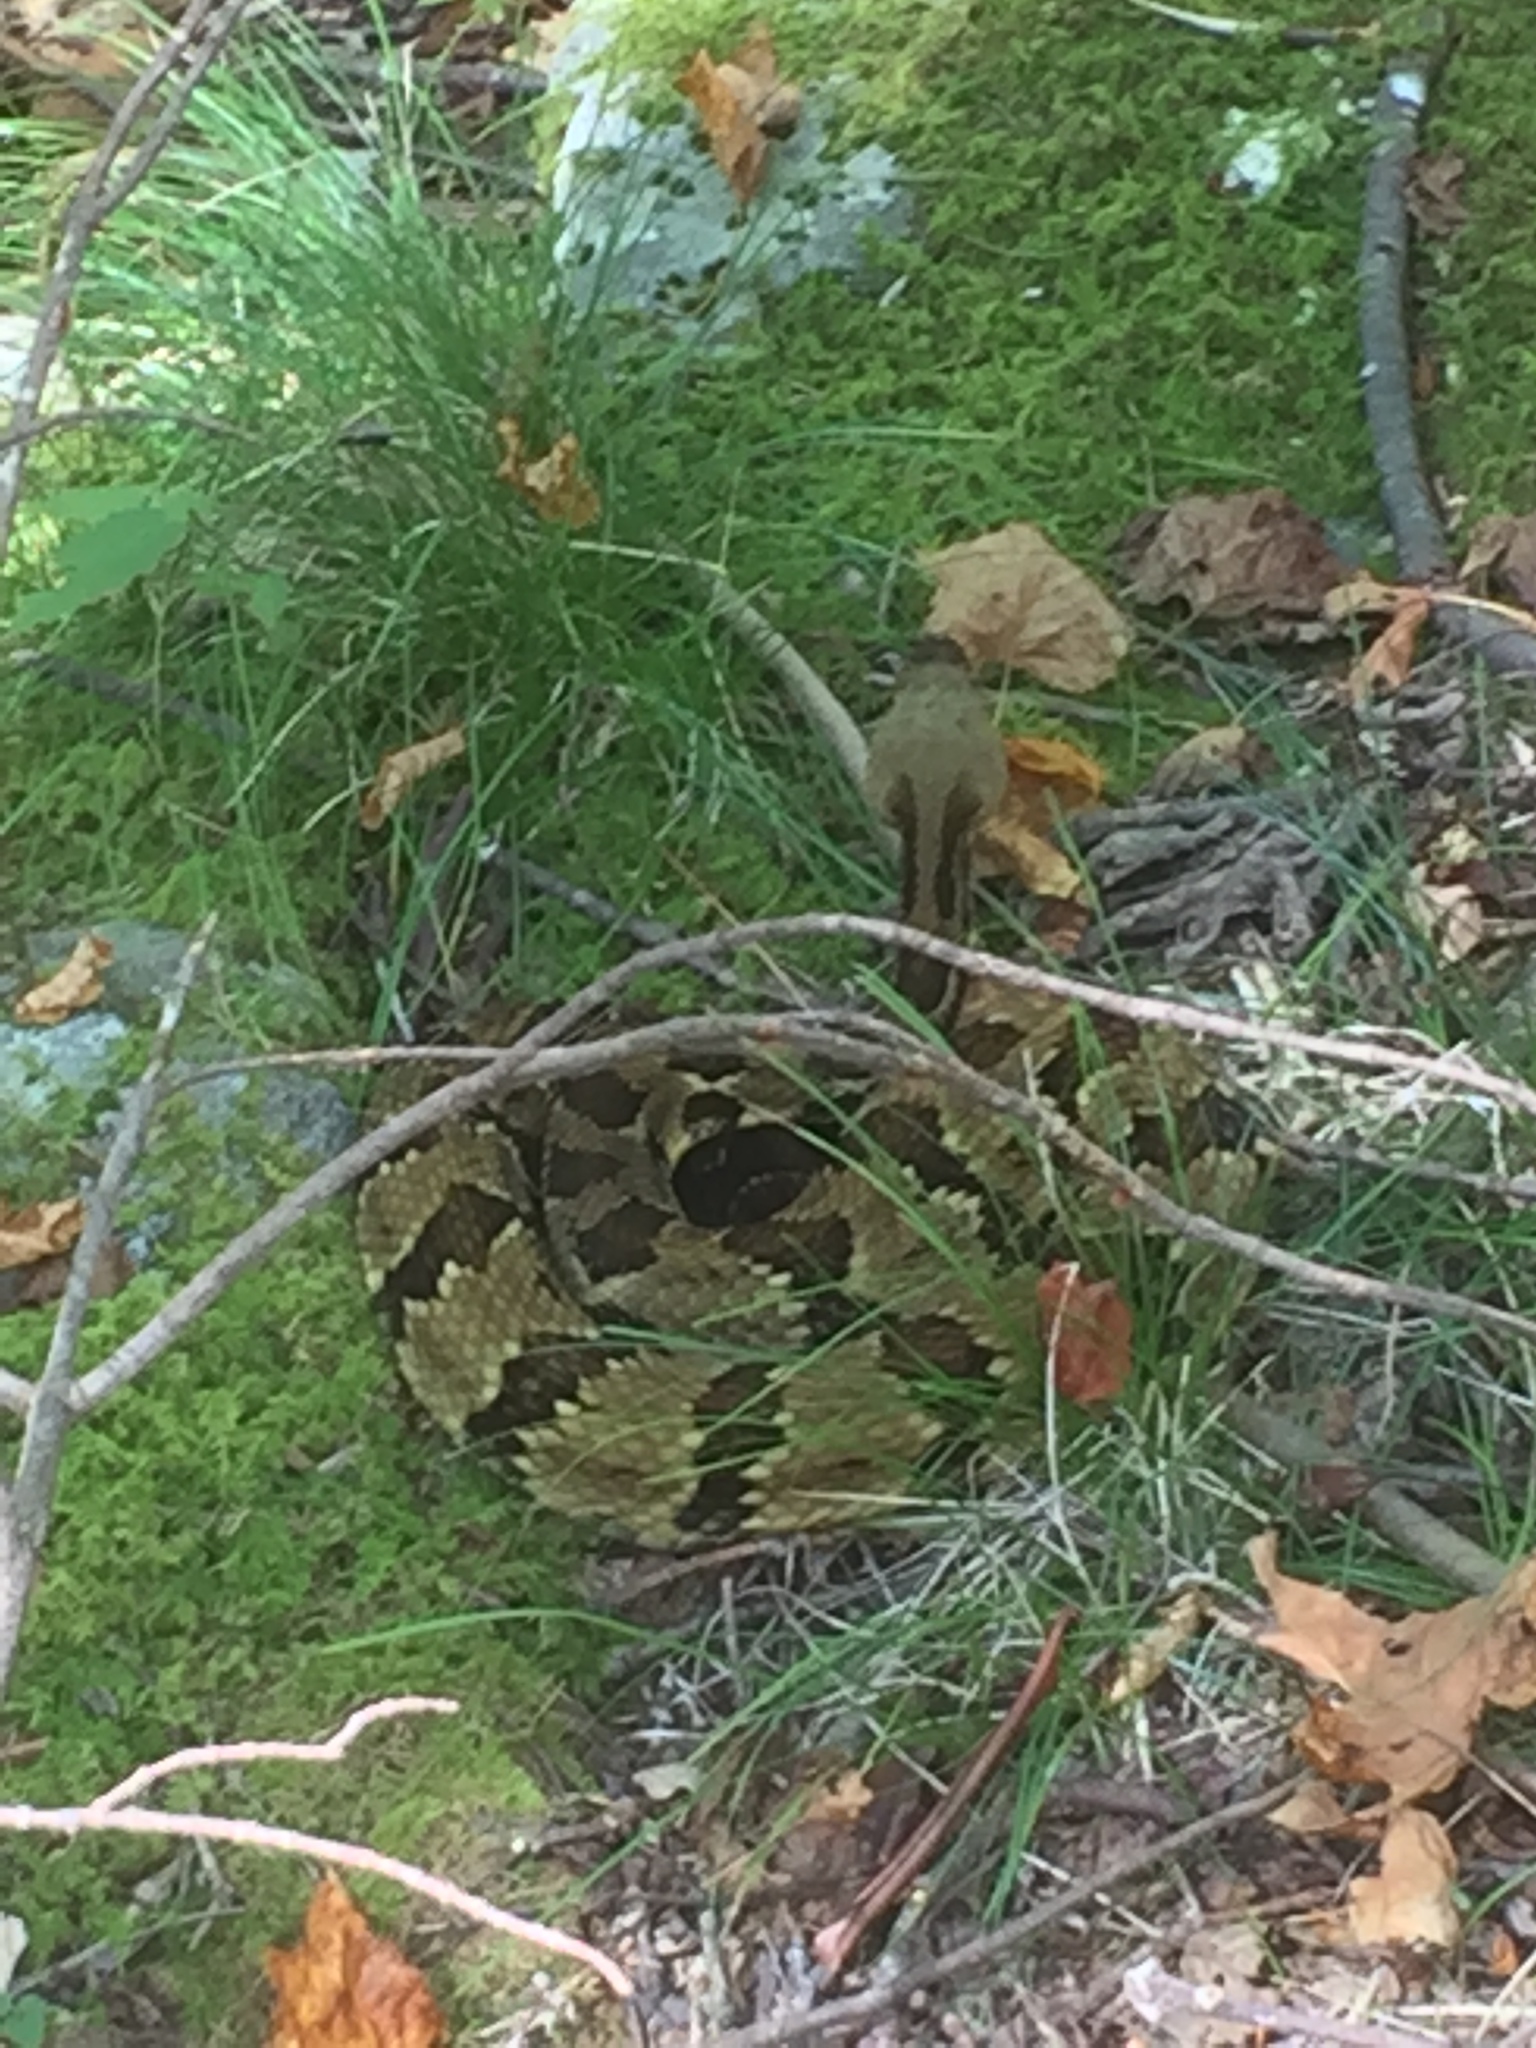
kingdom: Animalia
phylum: Chordata
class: Squamata
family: Viperidae
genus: Crotalus
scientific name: Crotalus horridus
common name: Timber rattlesnake
